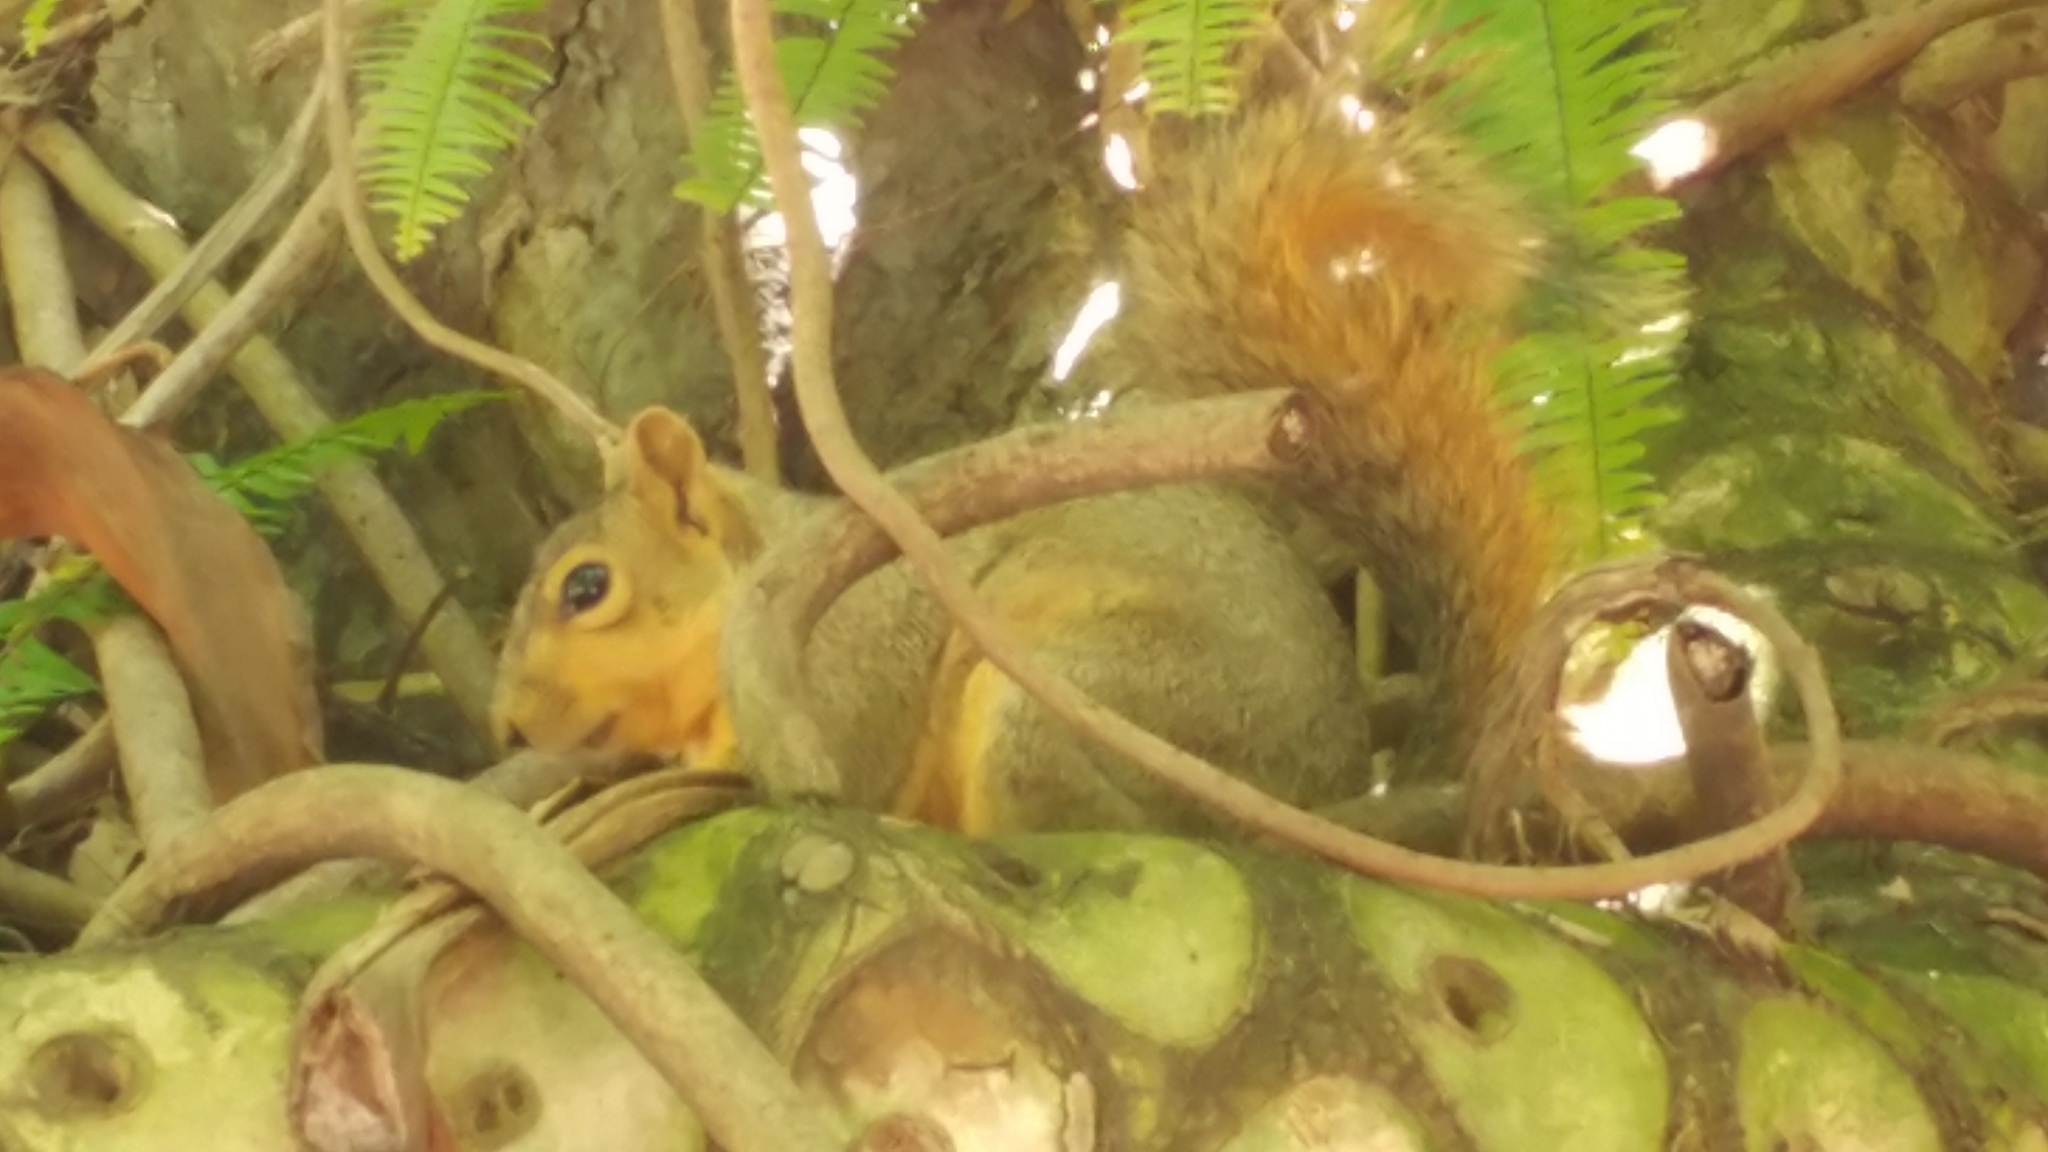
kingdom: Animalia
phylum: Chordata
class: Mammalia
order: Rodentia
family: Sciuridae
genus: Sciurus
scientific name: Sciurus niger
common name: Fox squirrel
